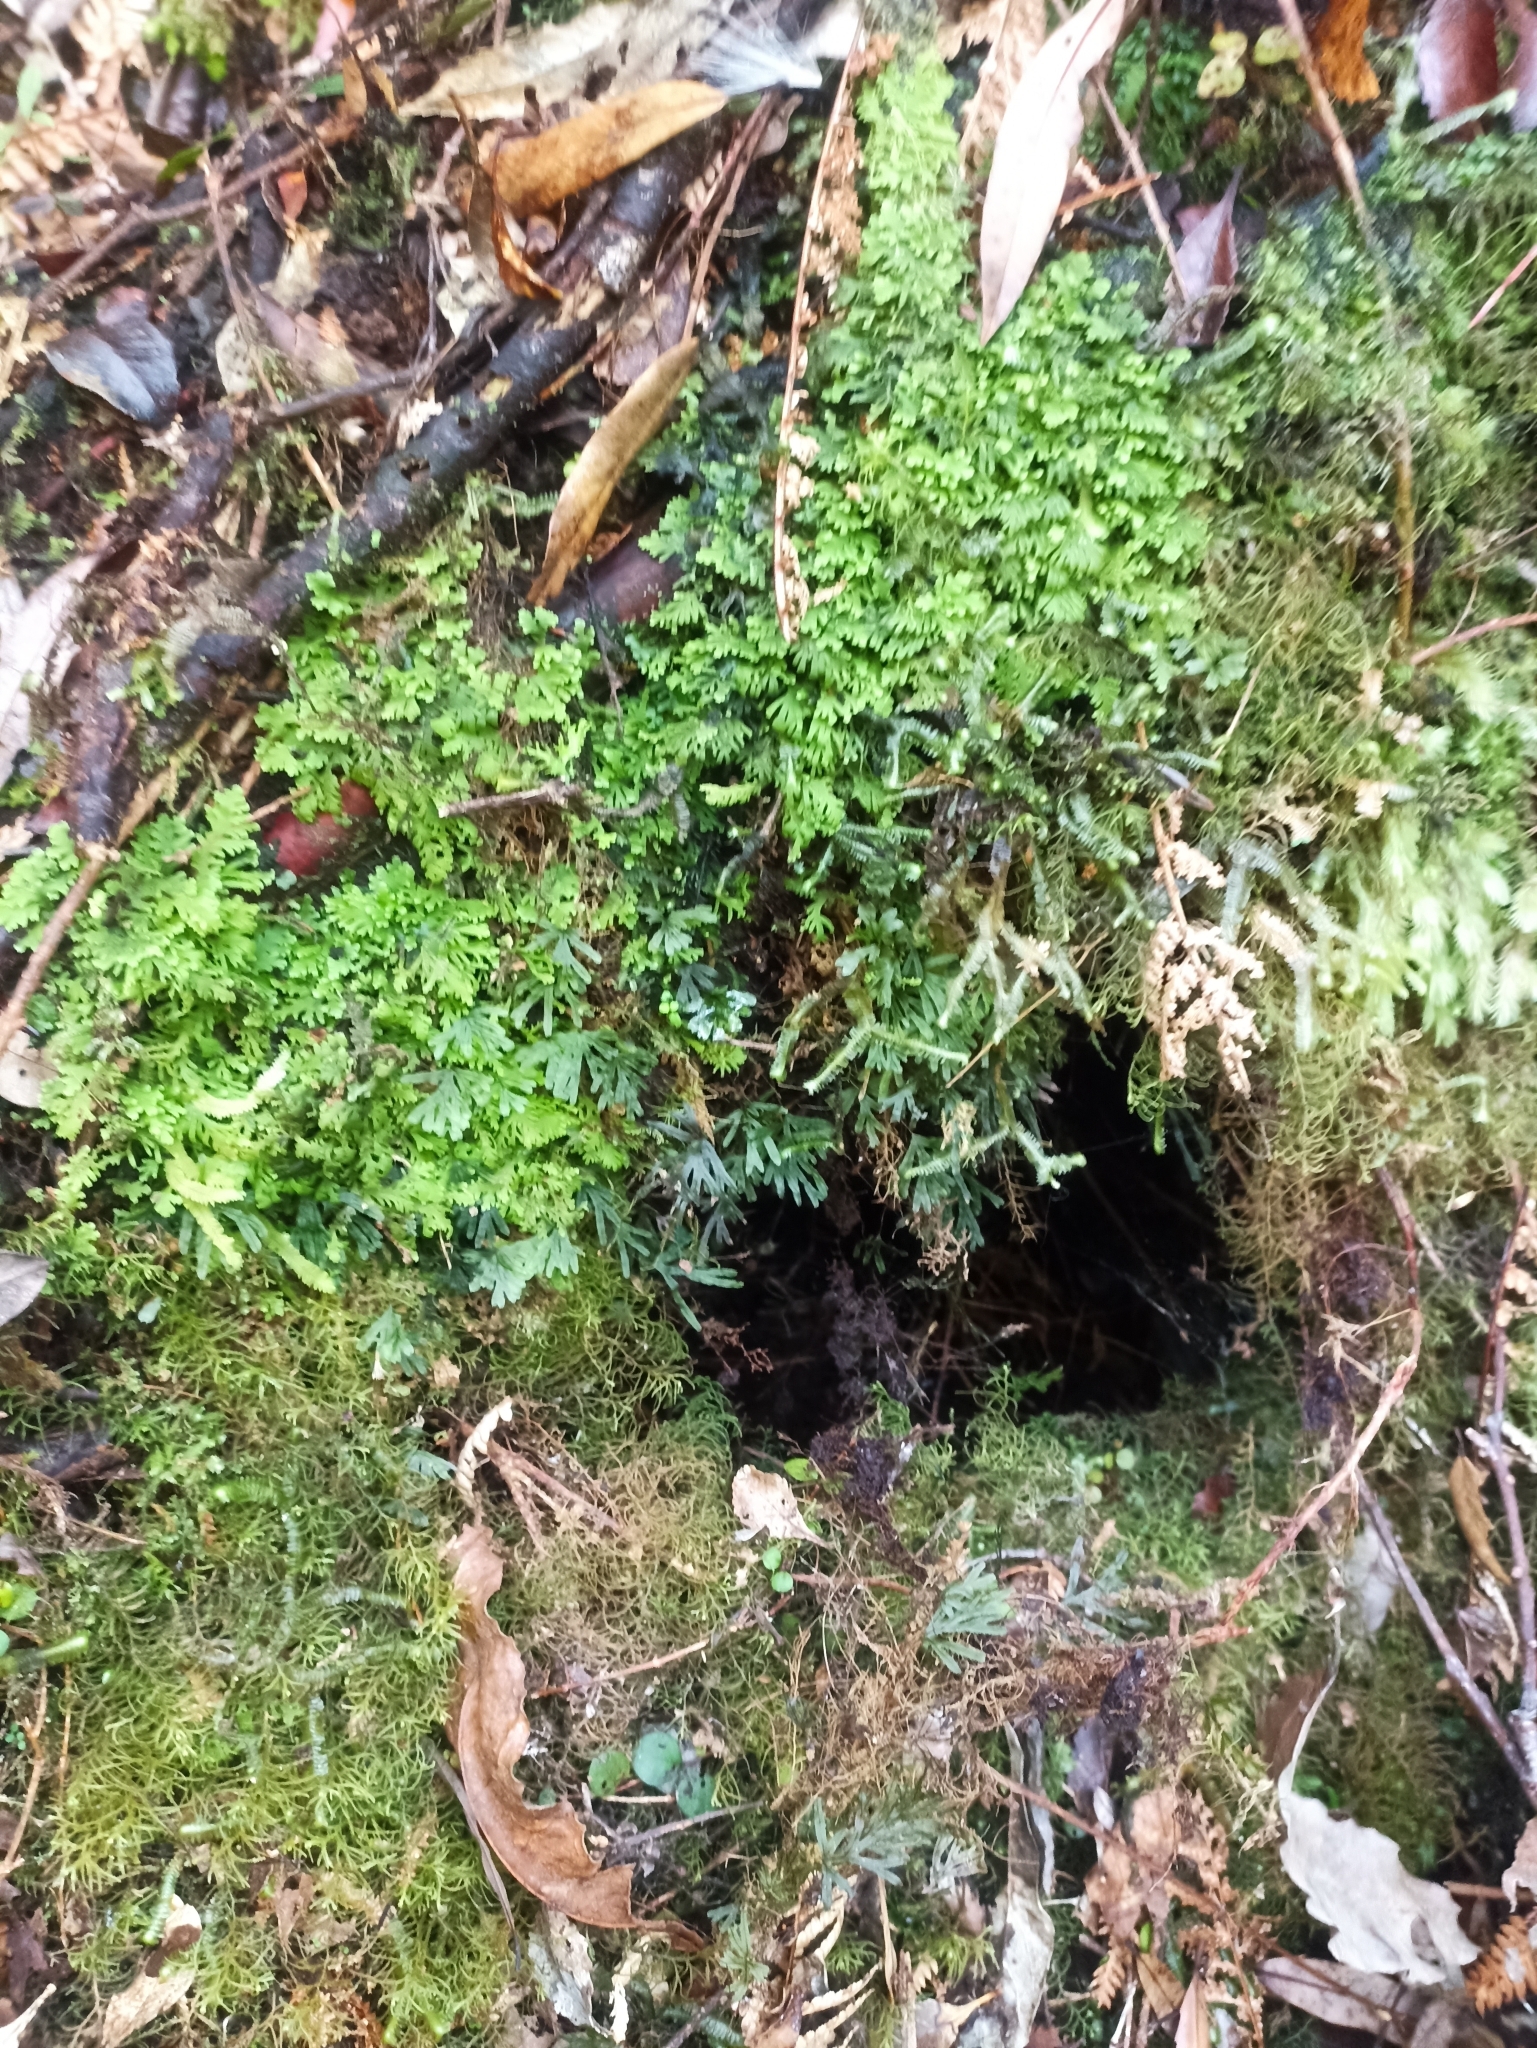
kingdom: Plantae
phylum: Tracheophyta
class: Polypodiopsida
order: Hymenophyllales
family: Hymenophyllaceae
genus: Hymenophyllum
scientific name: Hymenophyllum lyallii
